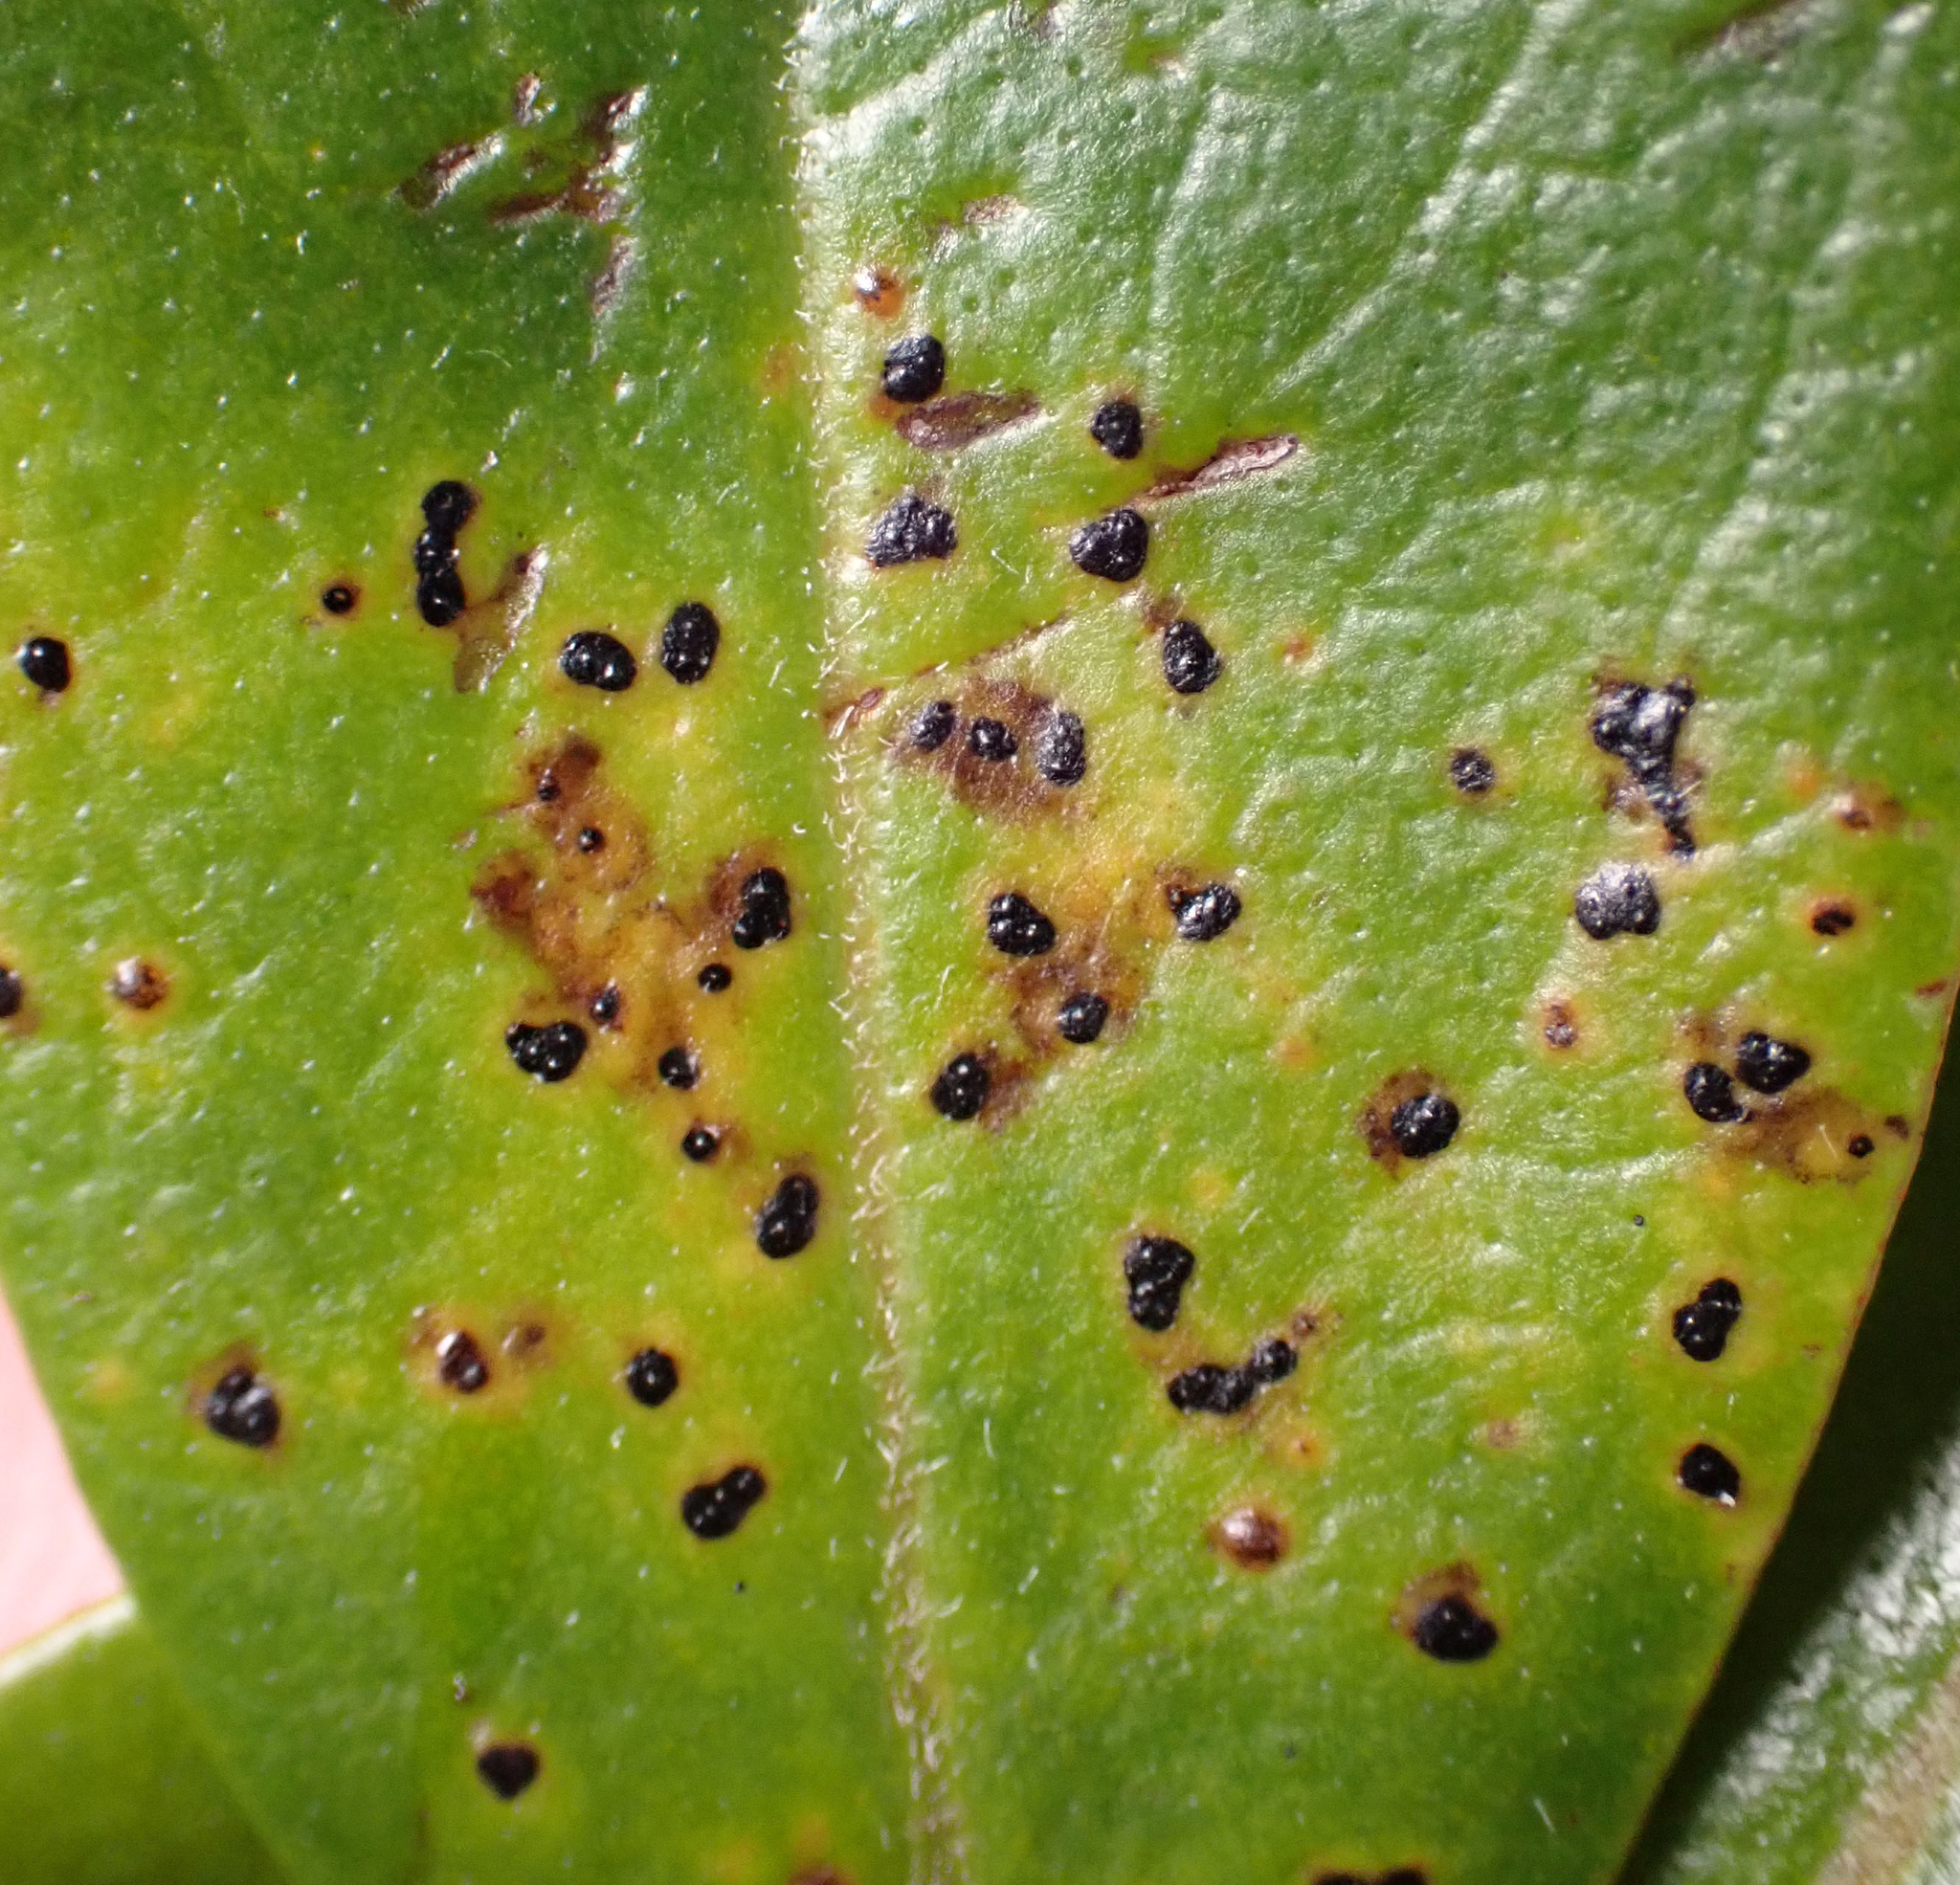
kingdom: Fungi
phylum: Ascomycota
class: Sordariomycetes
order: Phyllachorales
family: Phyllachoraceae
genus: Phyllachora
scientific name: Phyllachora hauturu
